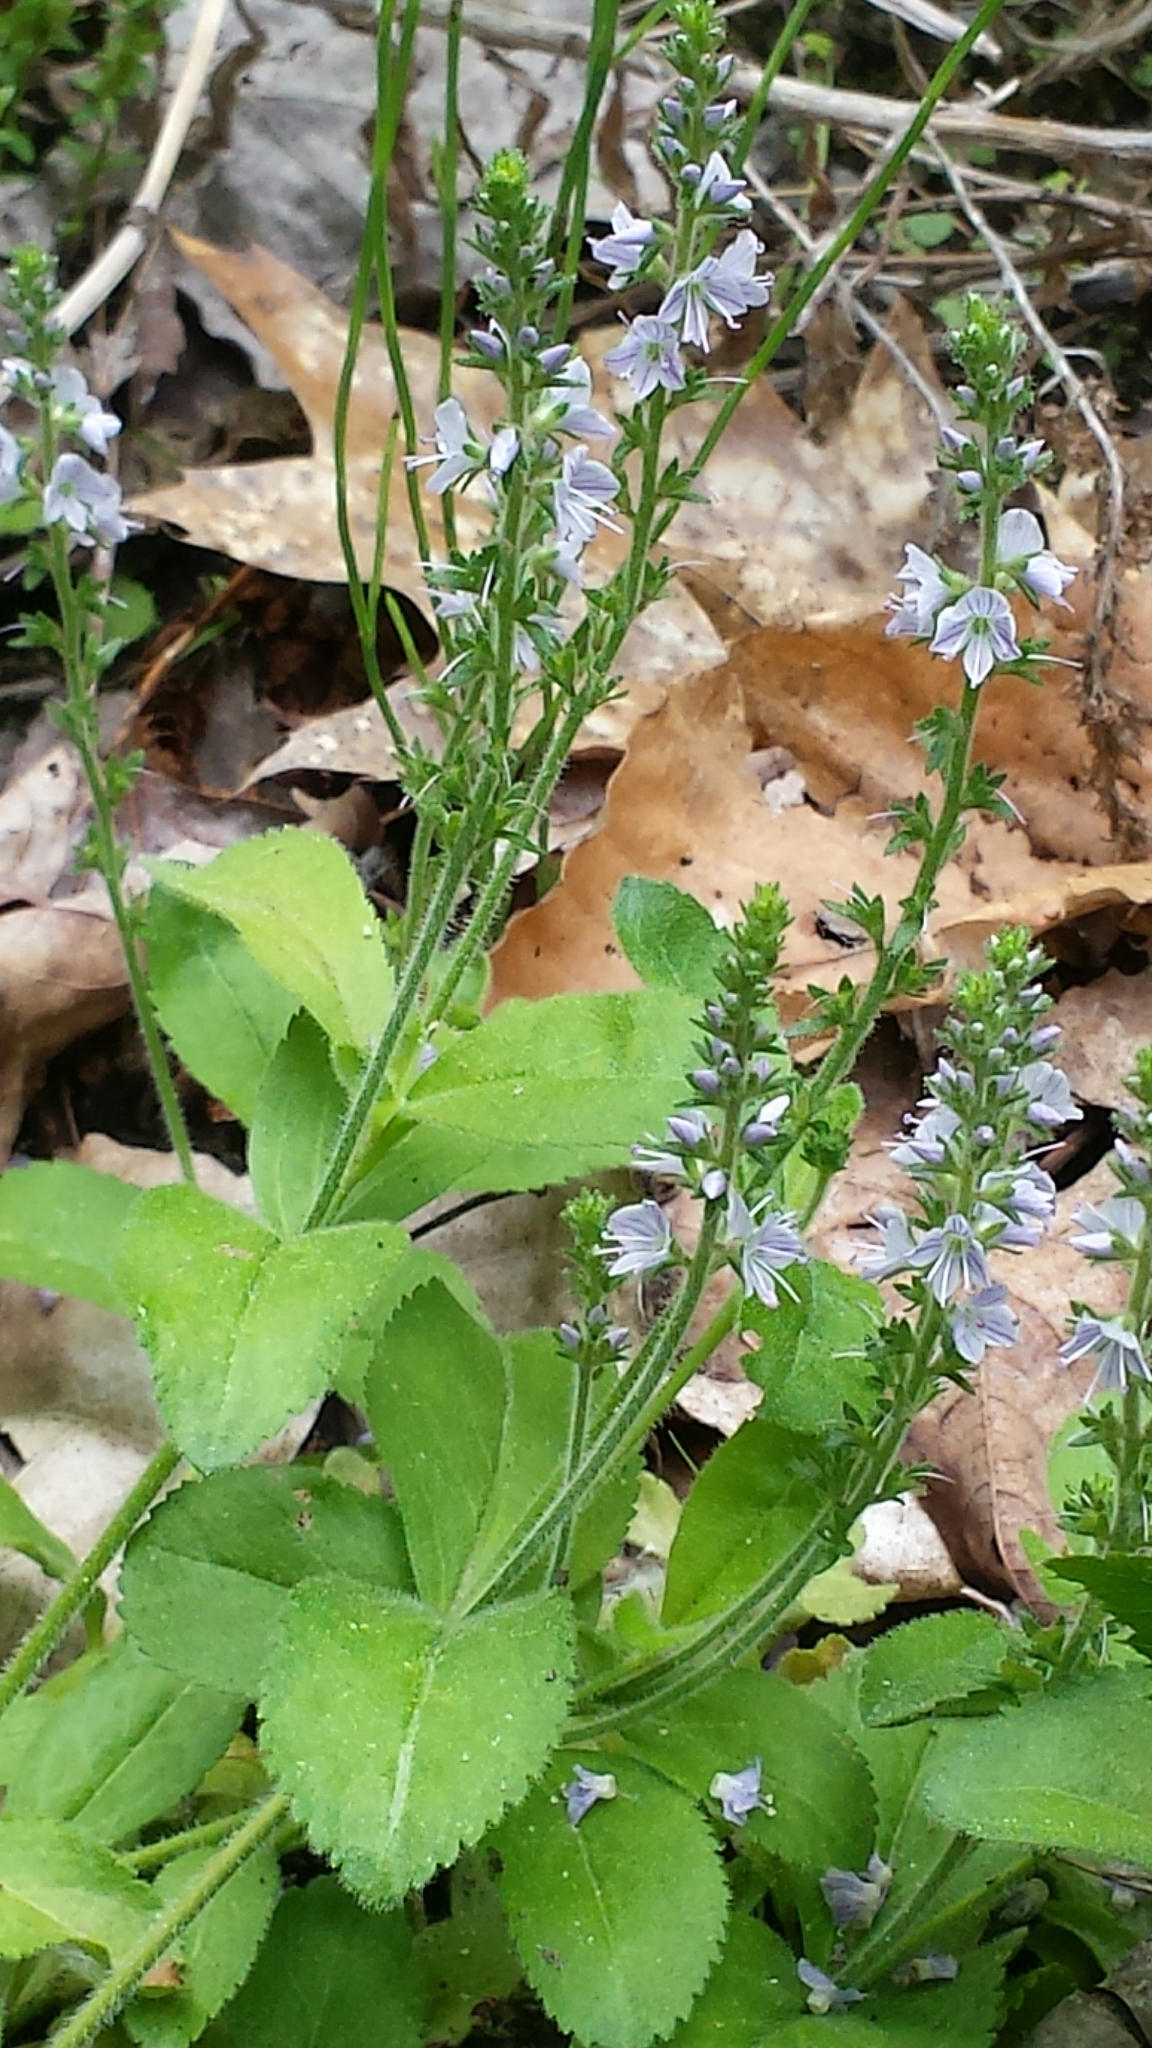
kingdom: Plantae
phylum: Tracheophyta
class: Magnoliopsida
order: Lamiales
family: Plantaginaceae
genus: Veronica
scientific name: Veronica officinalis
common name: Common speedwell
